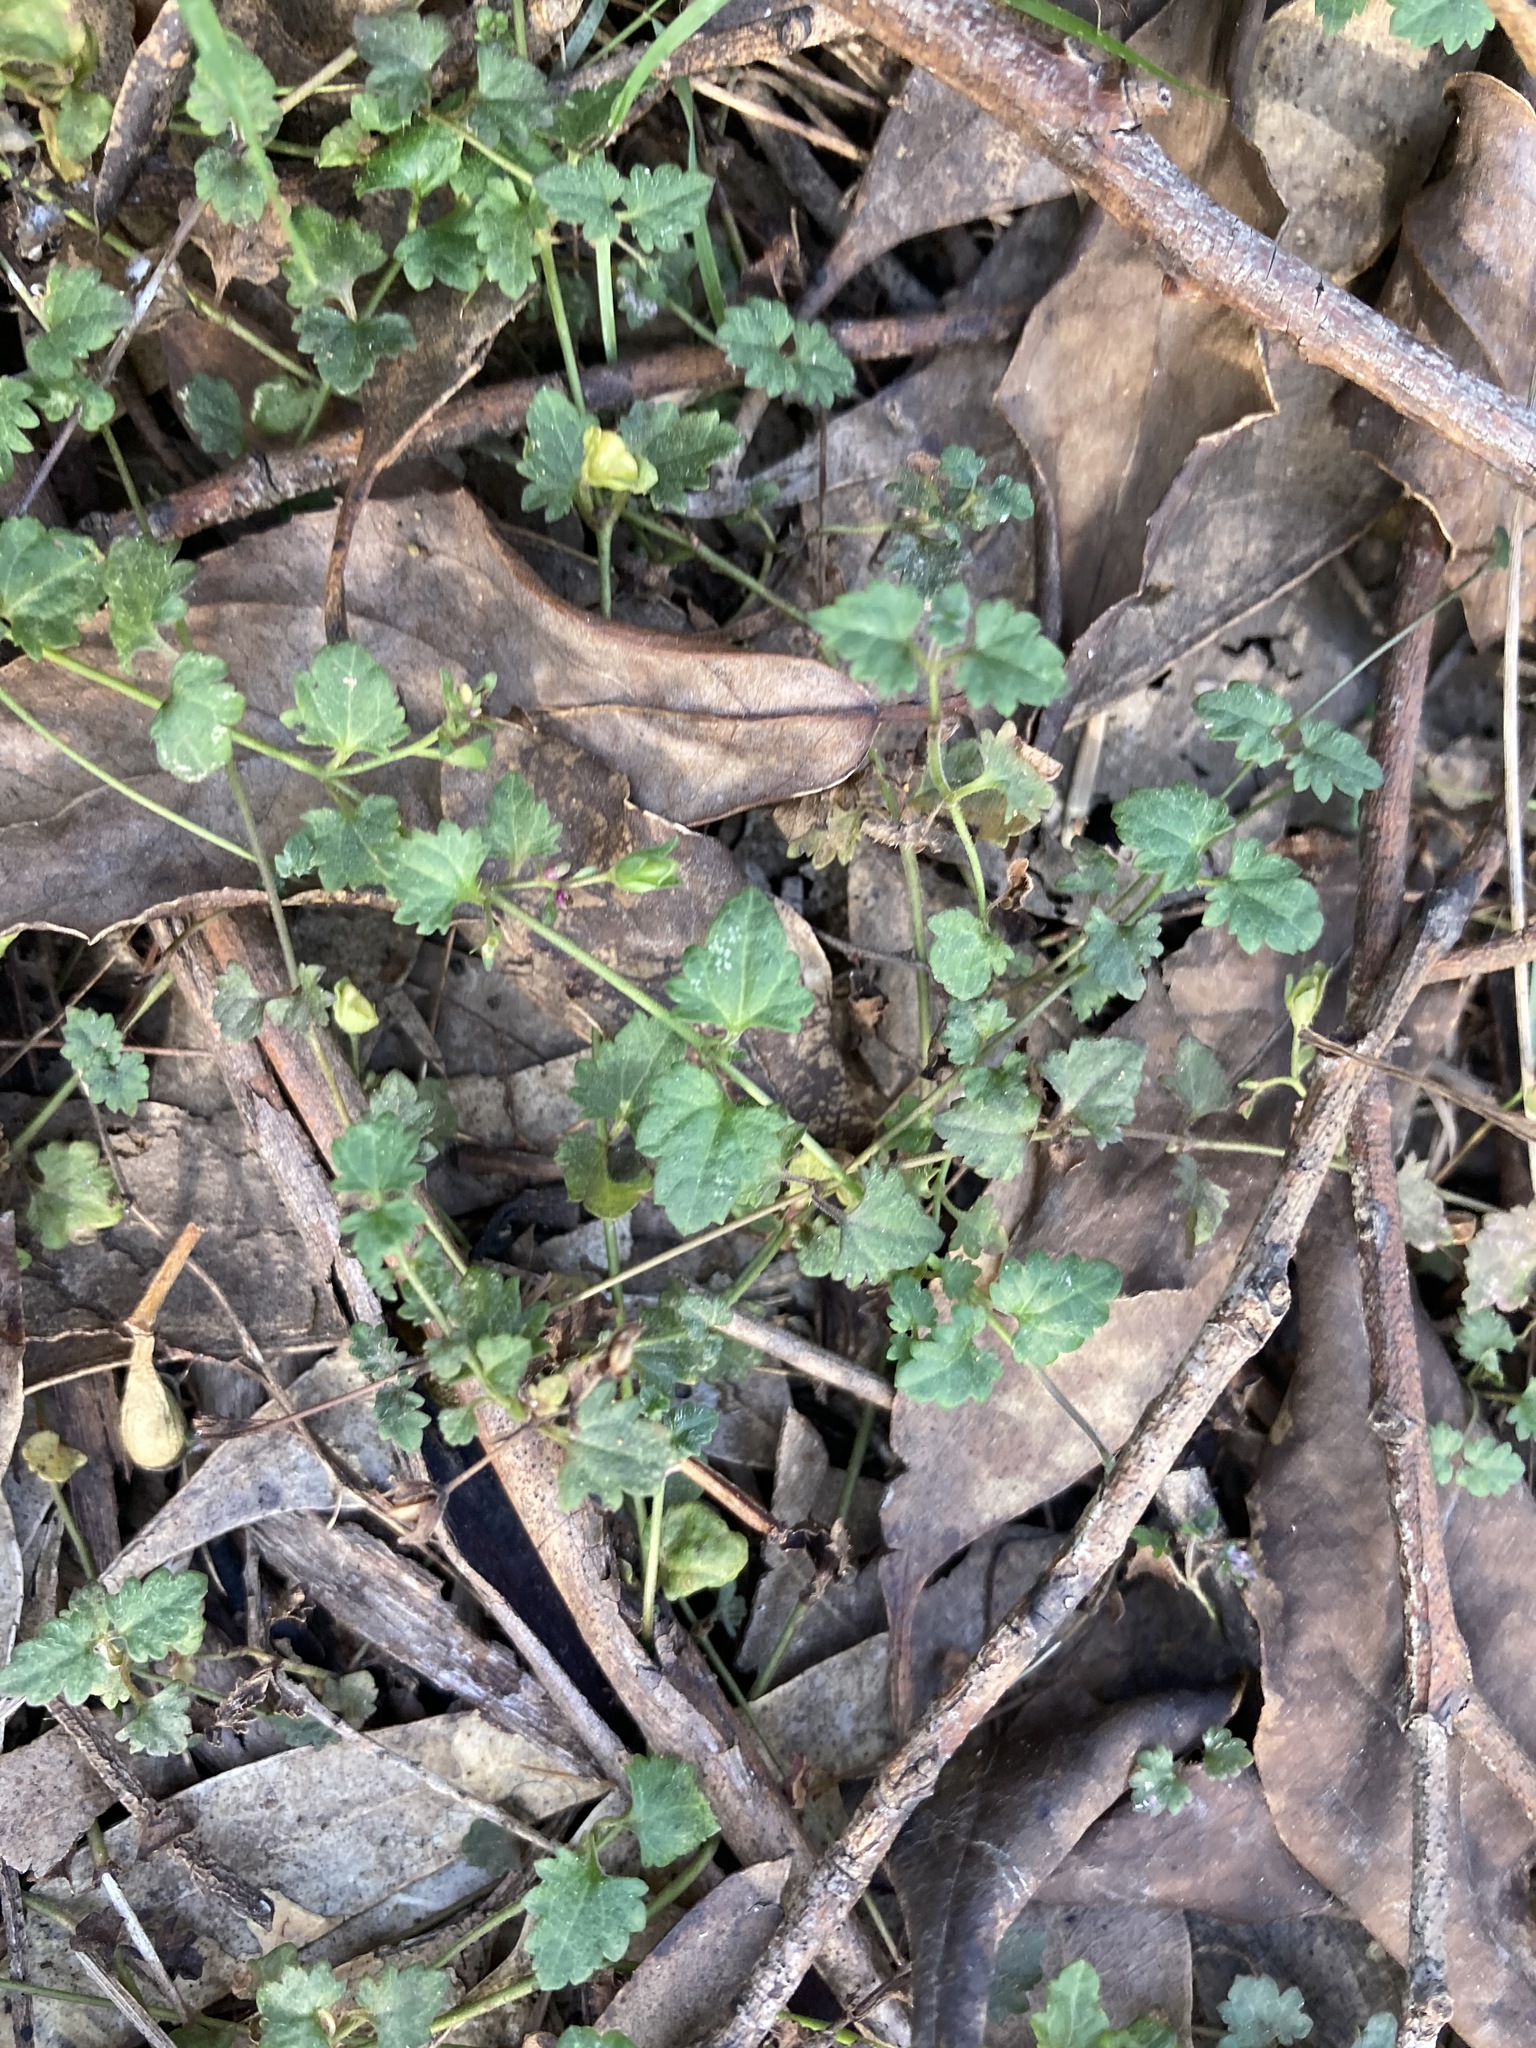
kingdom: Plantae
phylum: Tracheophyta
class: Magnoliopsida
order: Lamiales
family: Plantaginaceae
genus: Veronica
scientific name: Veronica plebeia
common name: Speedwell
